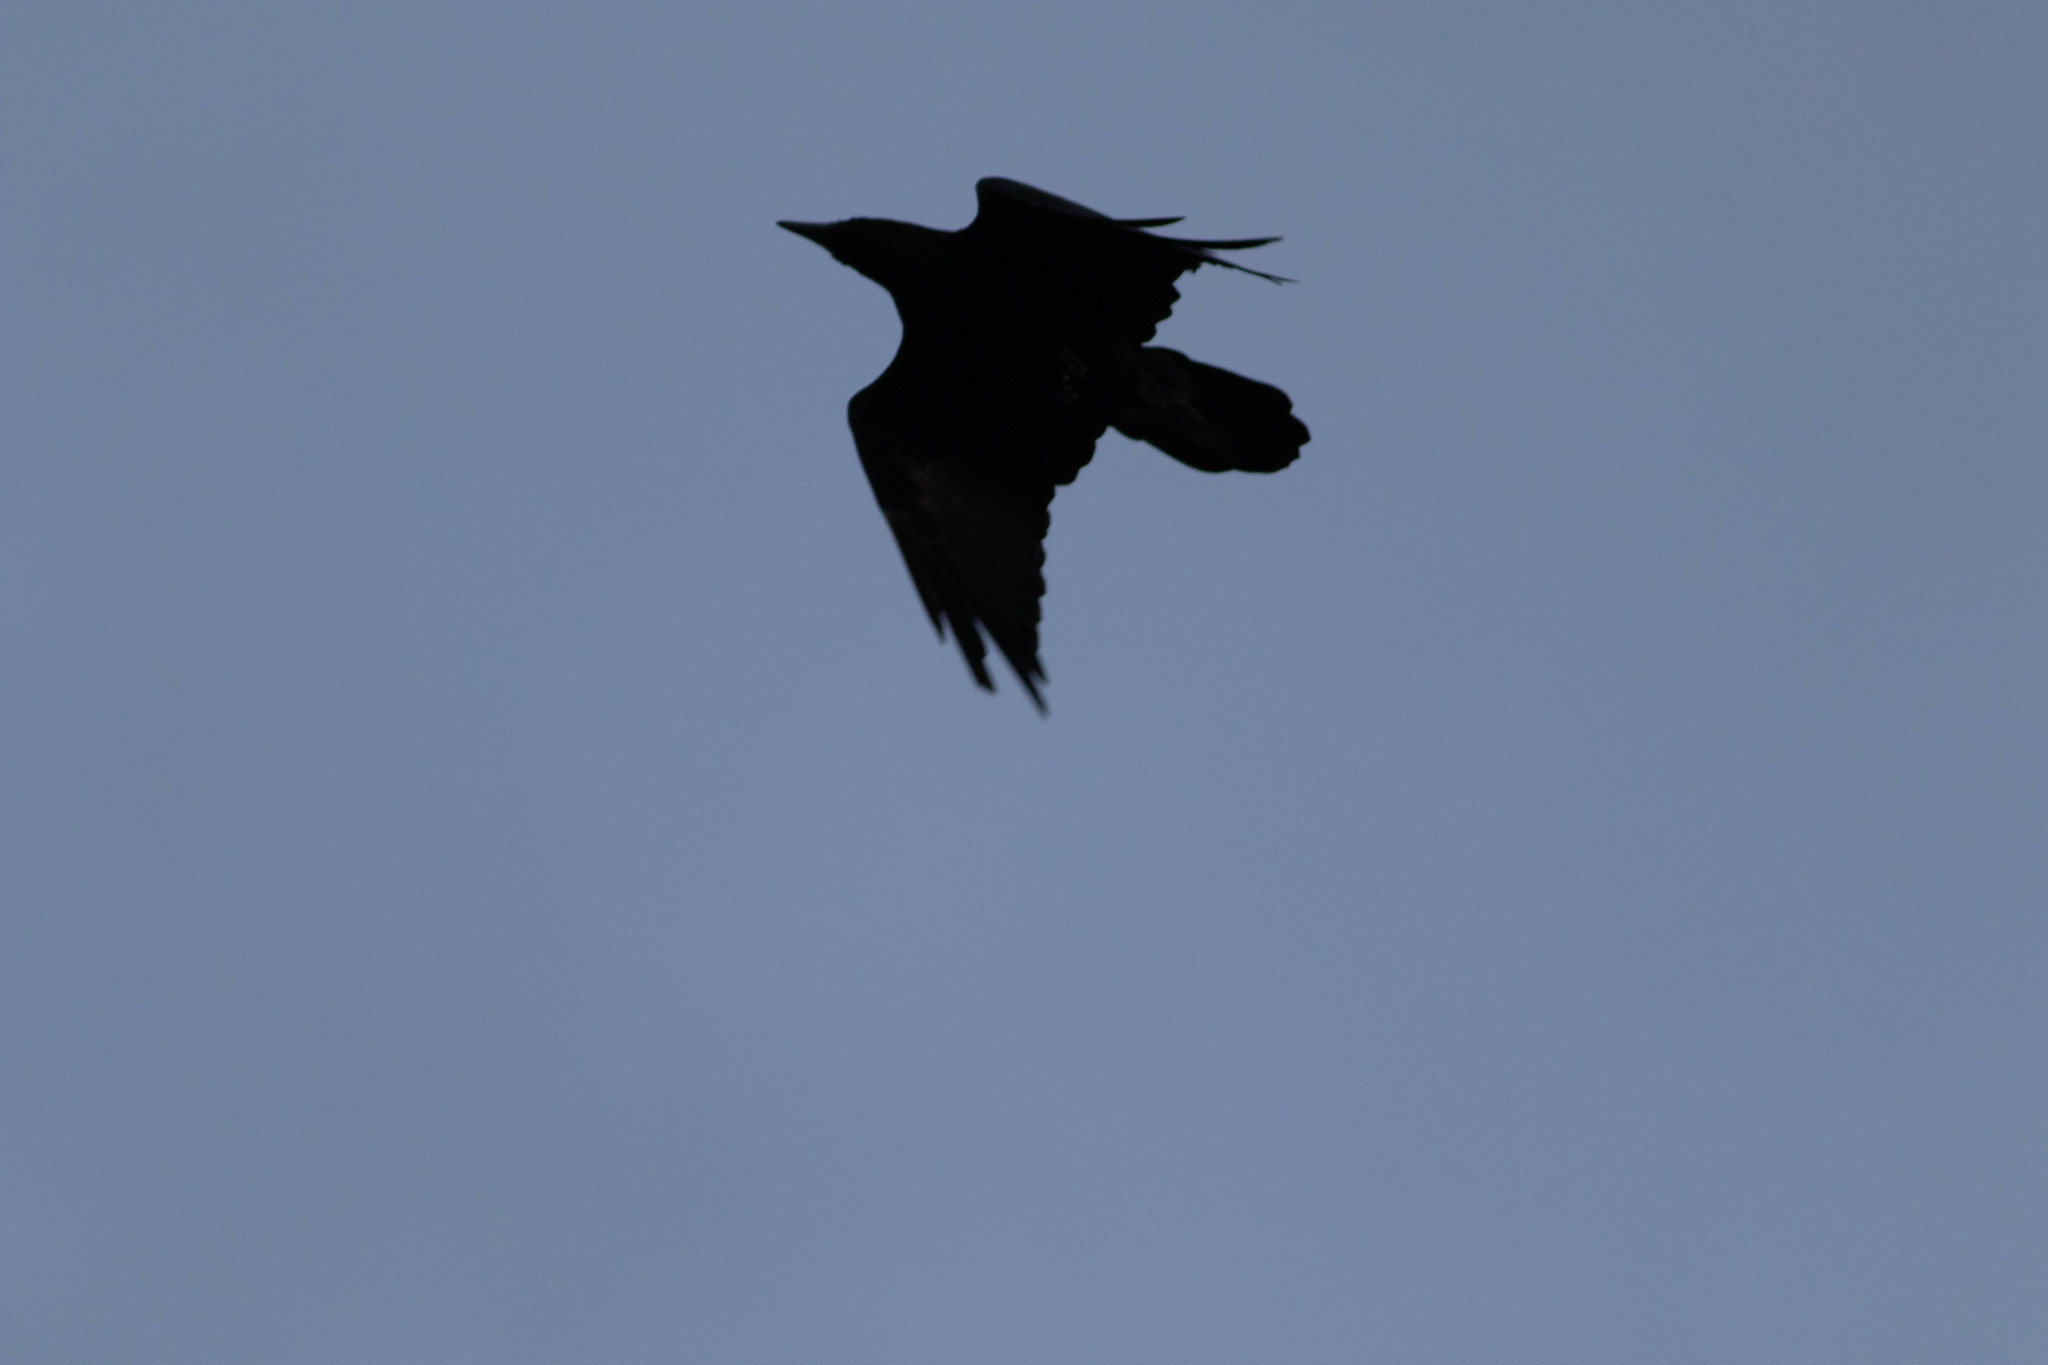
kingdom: Animalia
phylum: Chordata
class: Aves
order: Passeriformes
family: Corvidae
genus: Corvus
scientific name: Corvus corax
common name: Common raven
